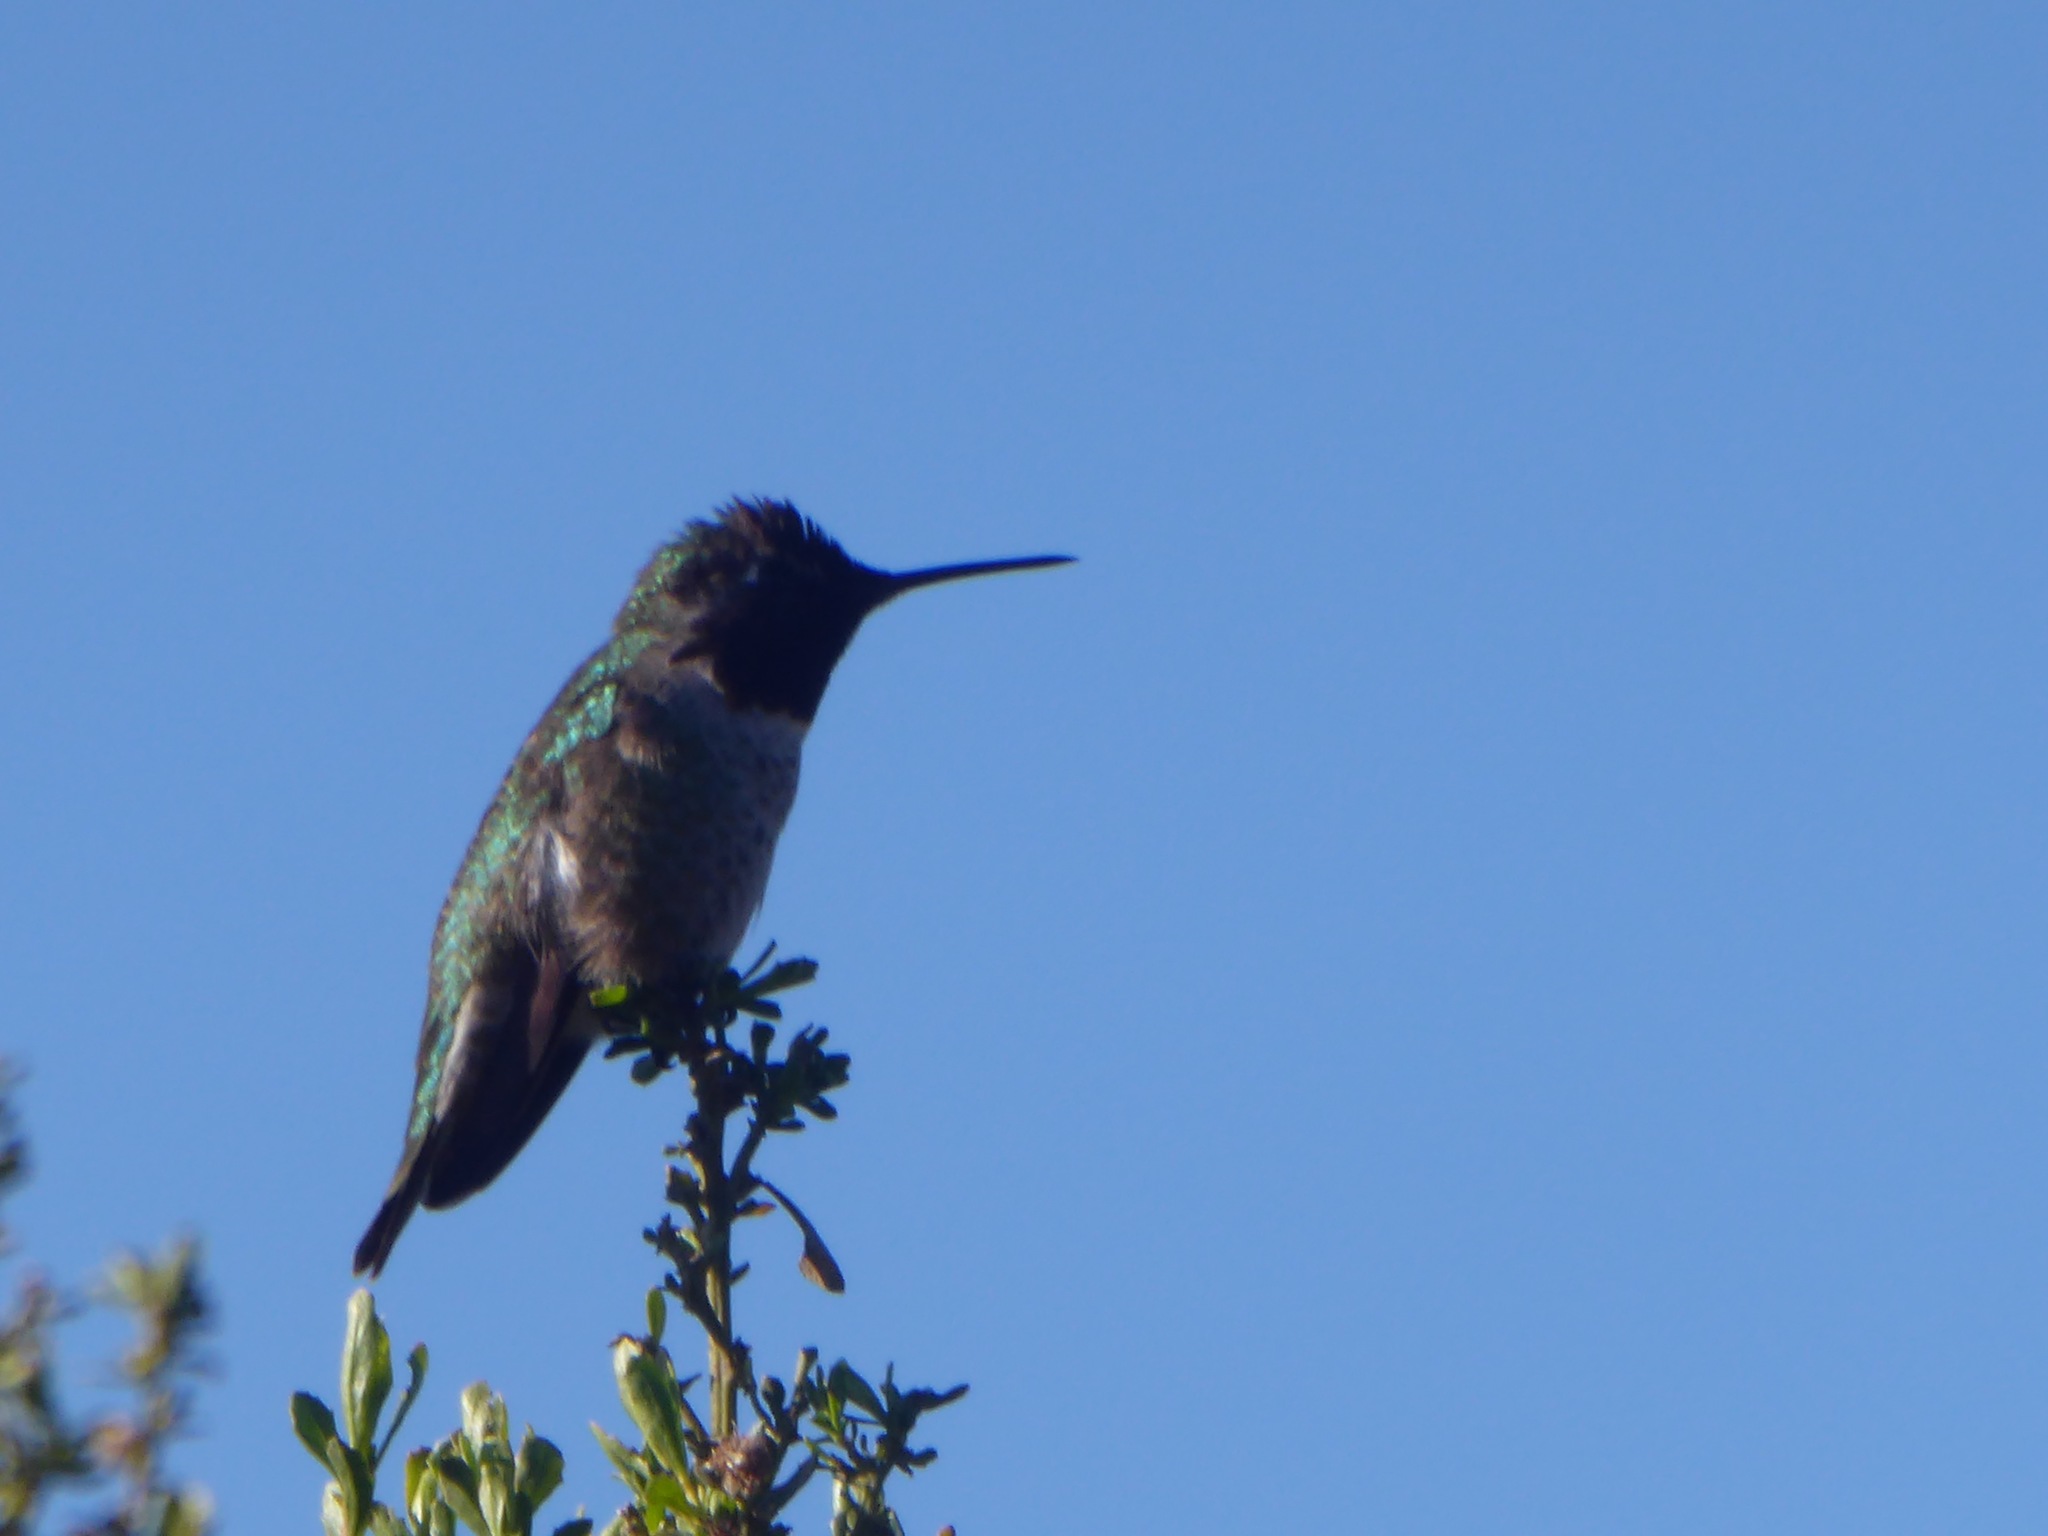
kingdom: Animalia
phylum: Chordata
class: Aves
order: Apodiformes
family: Trochilidae
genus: Calypte
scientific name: Calypte anna
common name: Anna's hummingbird
